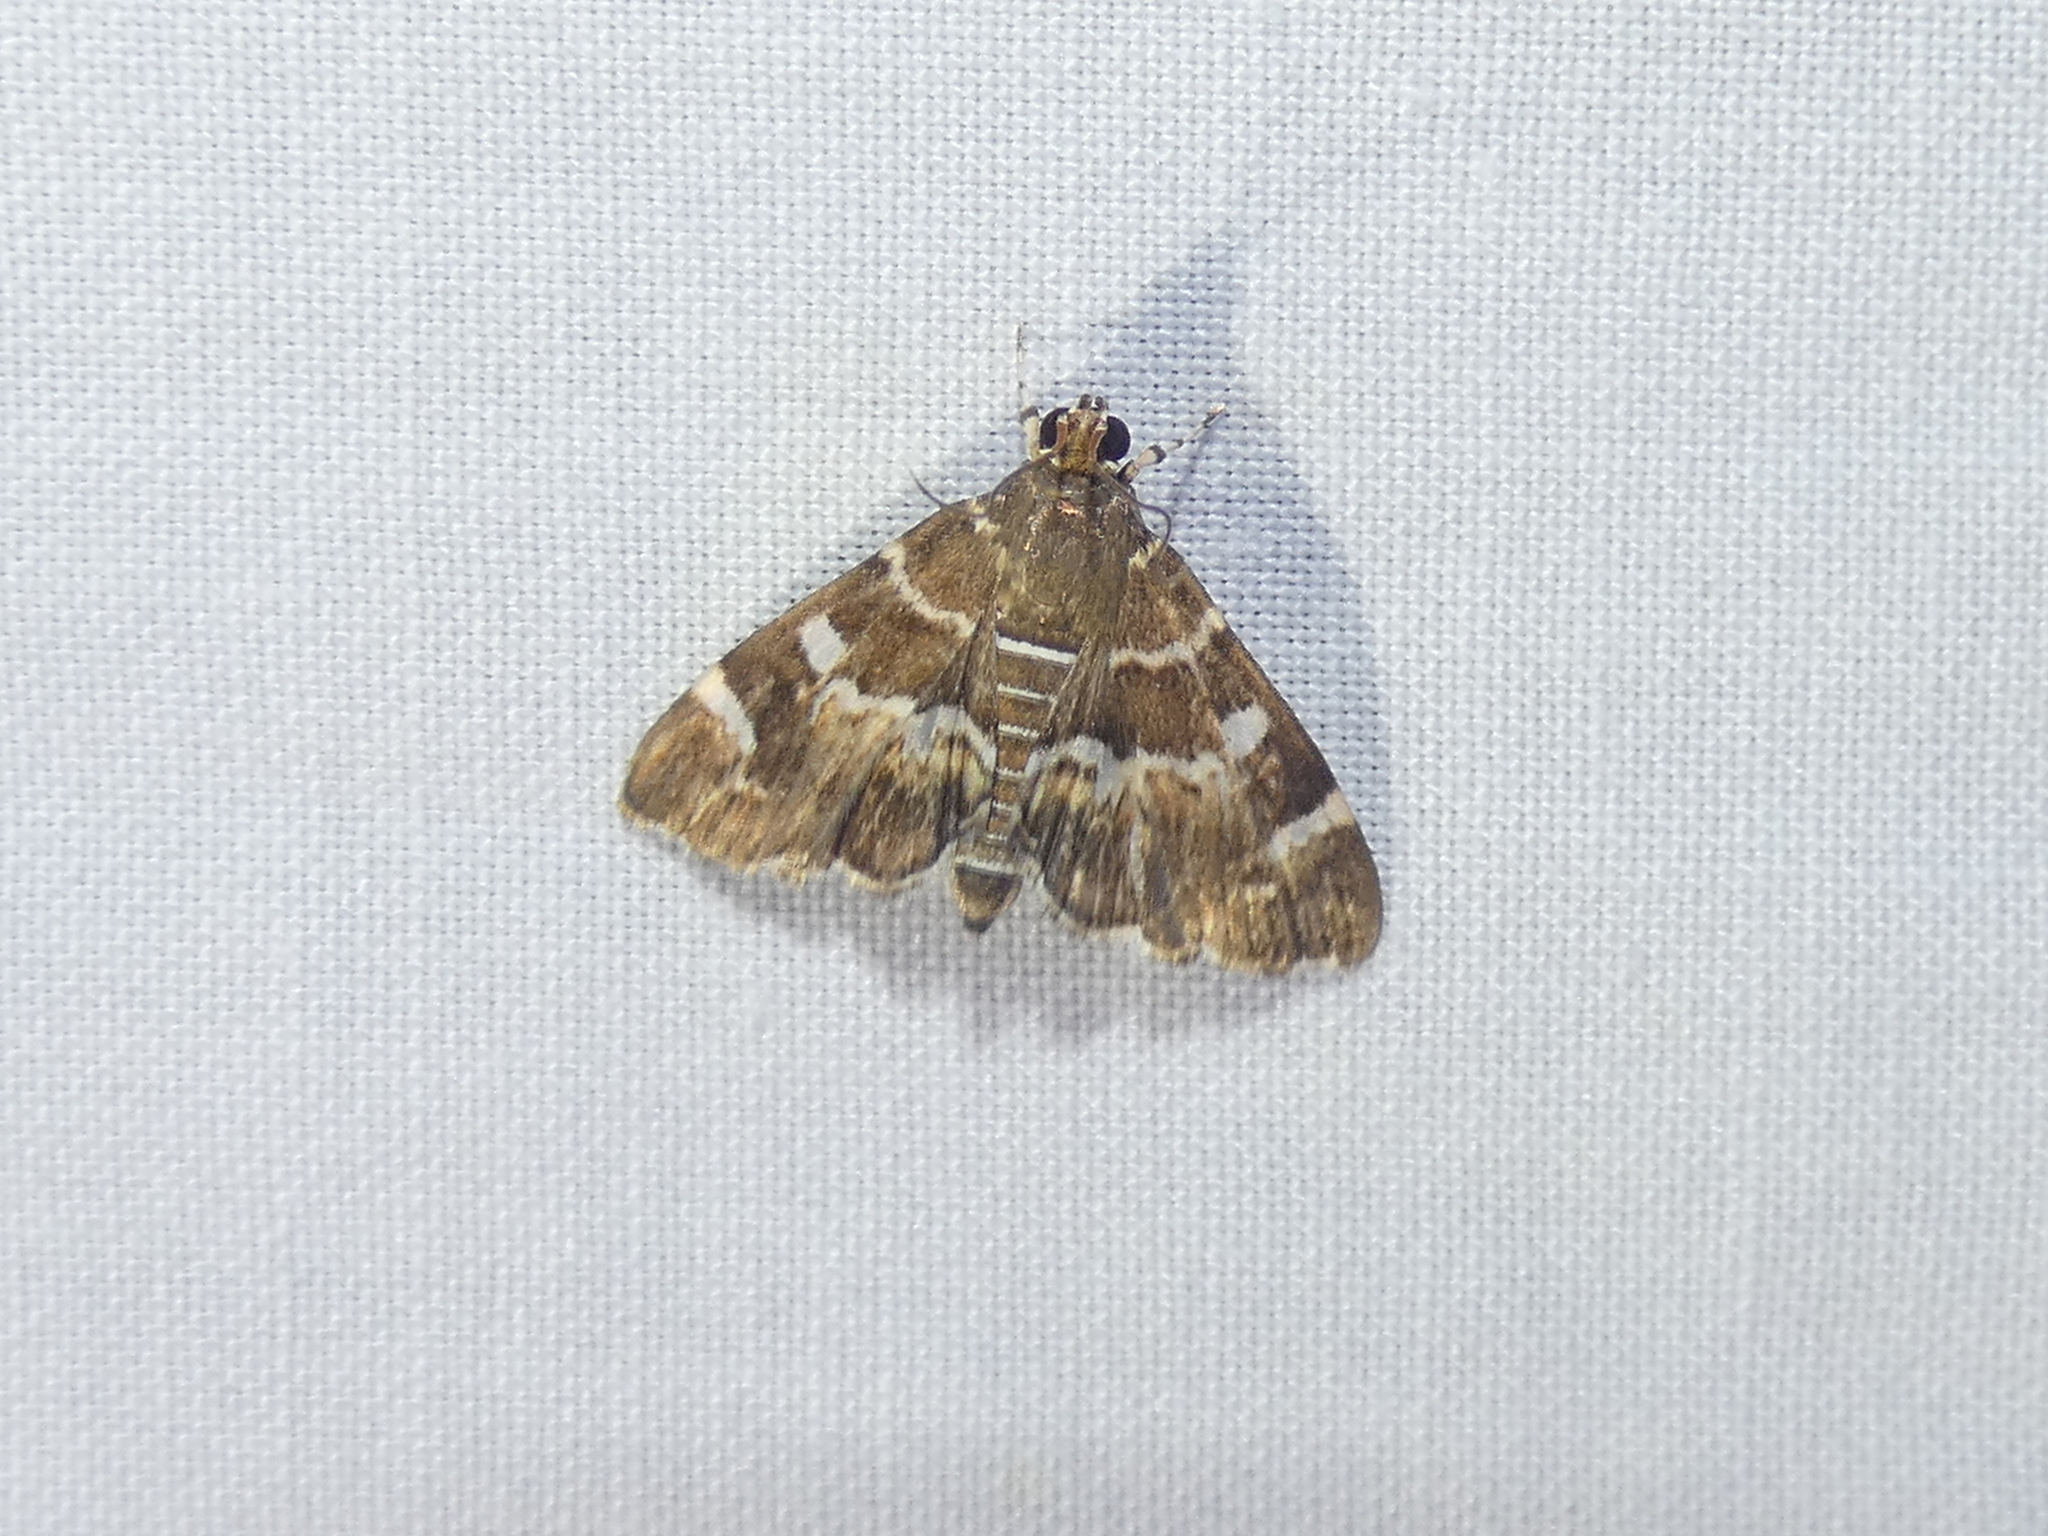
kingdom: Animalia
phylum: Arthropoda
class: Insecta
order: Lepidoptera
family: Crambidae
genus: Hymenia
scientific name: Hymenia perspectalis
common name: Spotted beet webworm
